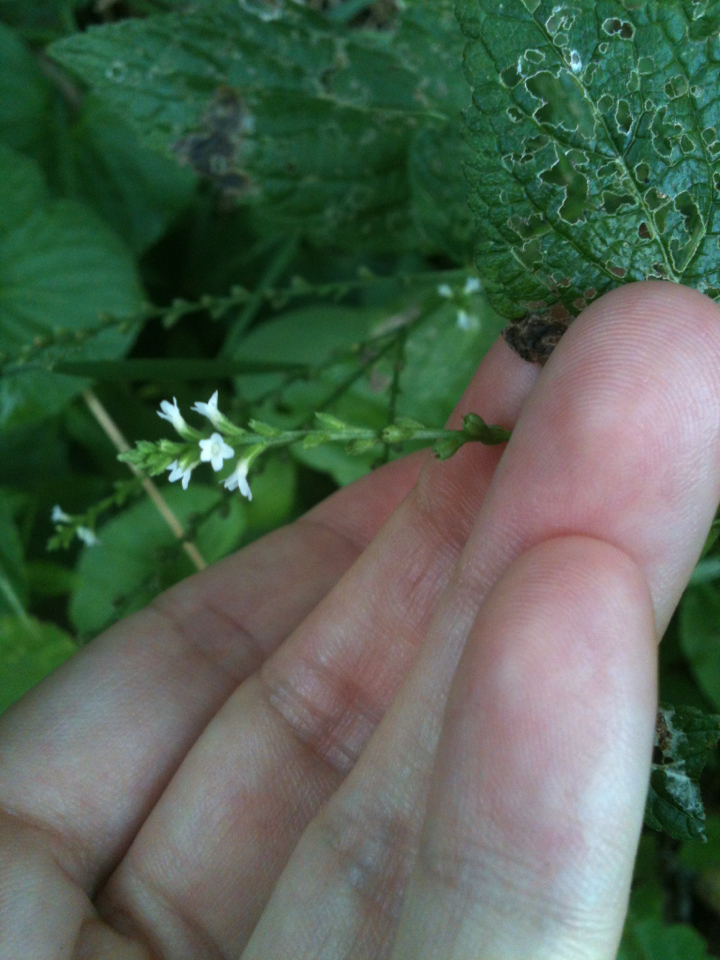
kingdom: Plantae
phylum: Tracheophyta
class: Magnoliopsida
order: Lamiales
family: Verbenaceae
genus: Verbena
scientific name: Verbena urticifolia
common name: Nettle-leaved vervain
